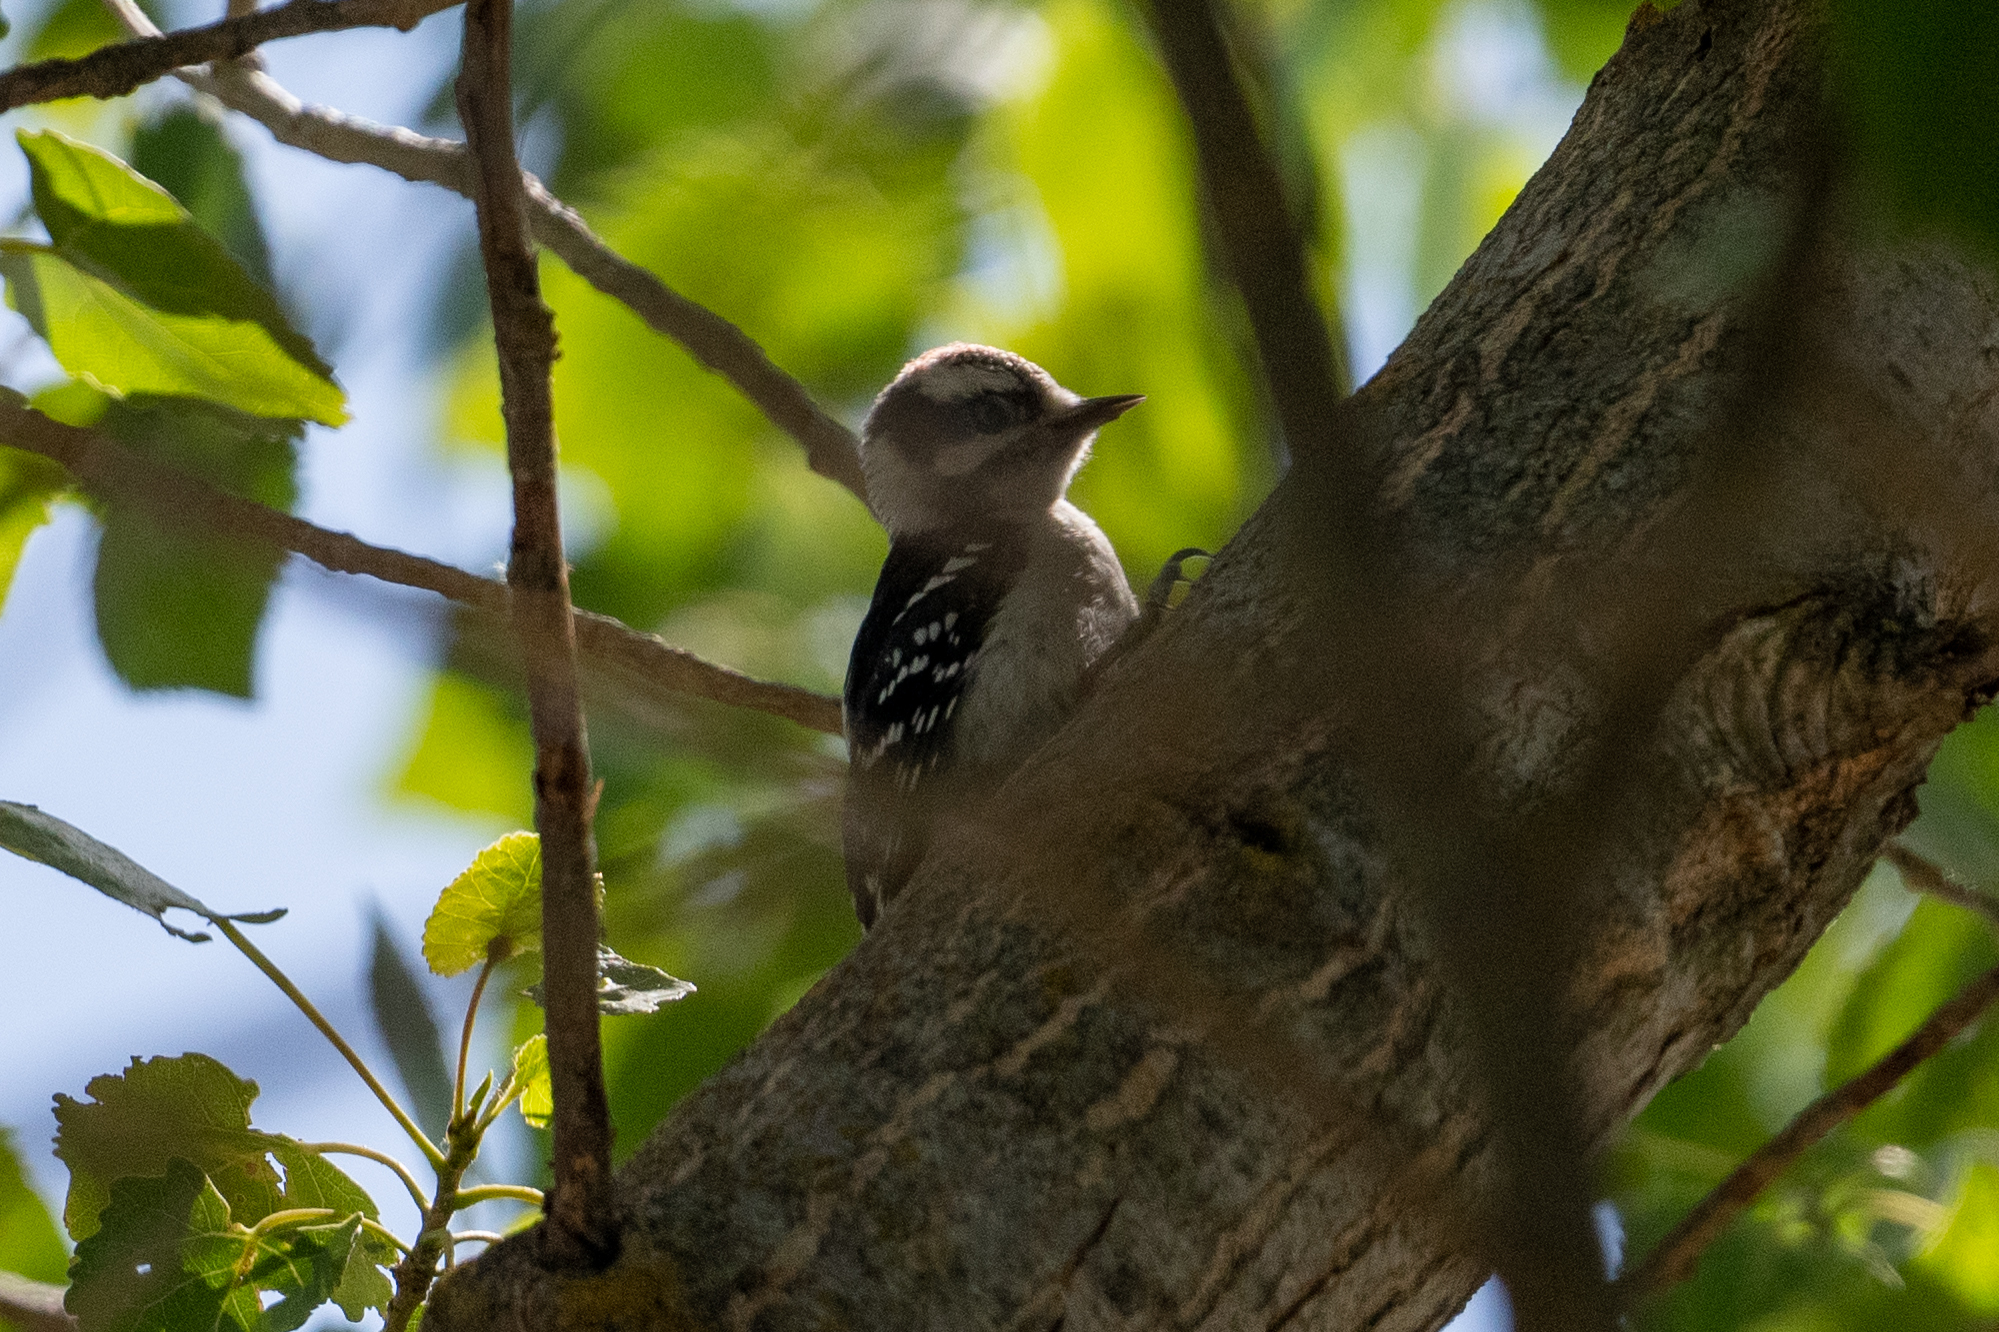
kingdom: Animalia
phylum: Chordata
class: Aves
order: Piciformes
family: Picidae
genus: Dryobates
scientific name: Dryobates pubescens
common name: Downy woodpecker
